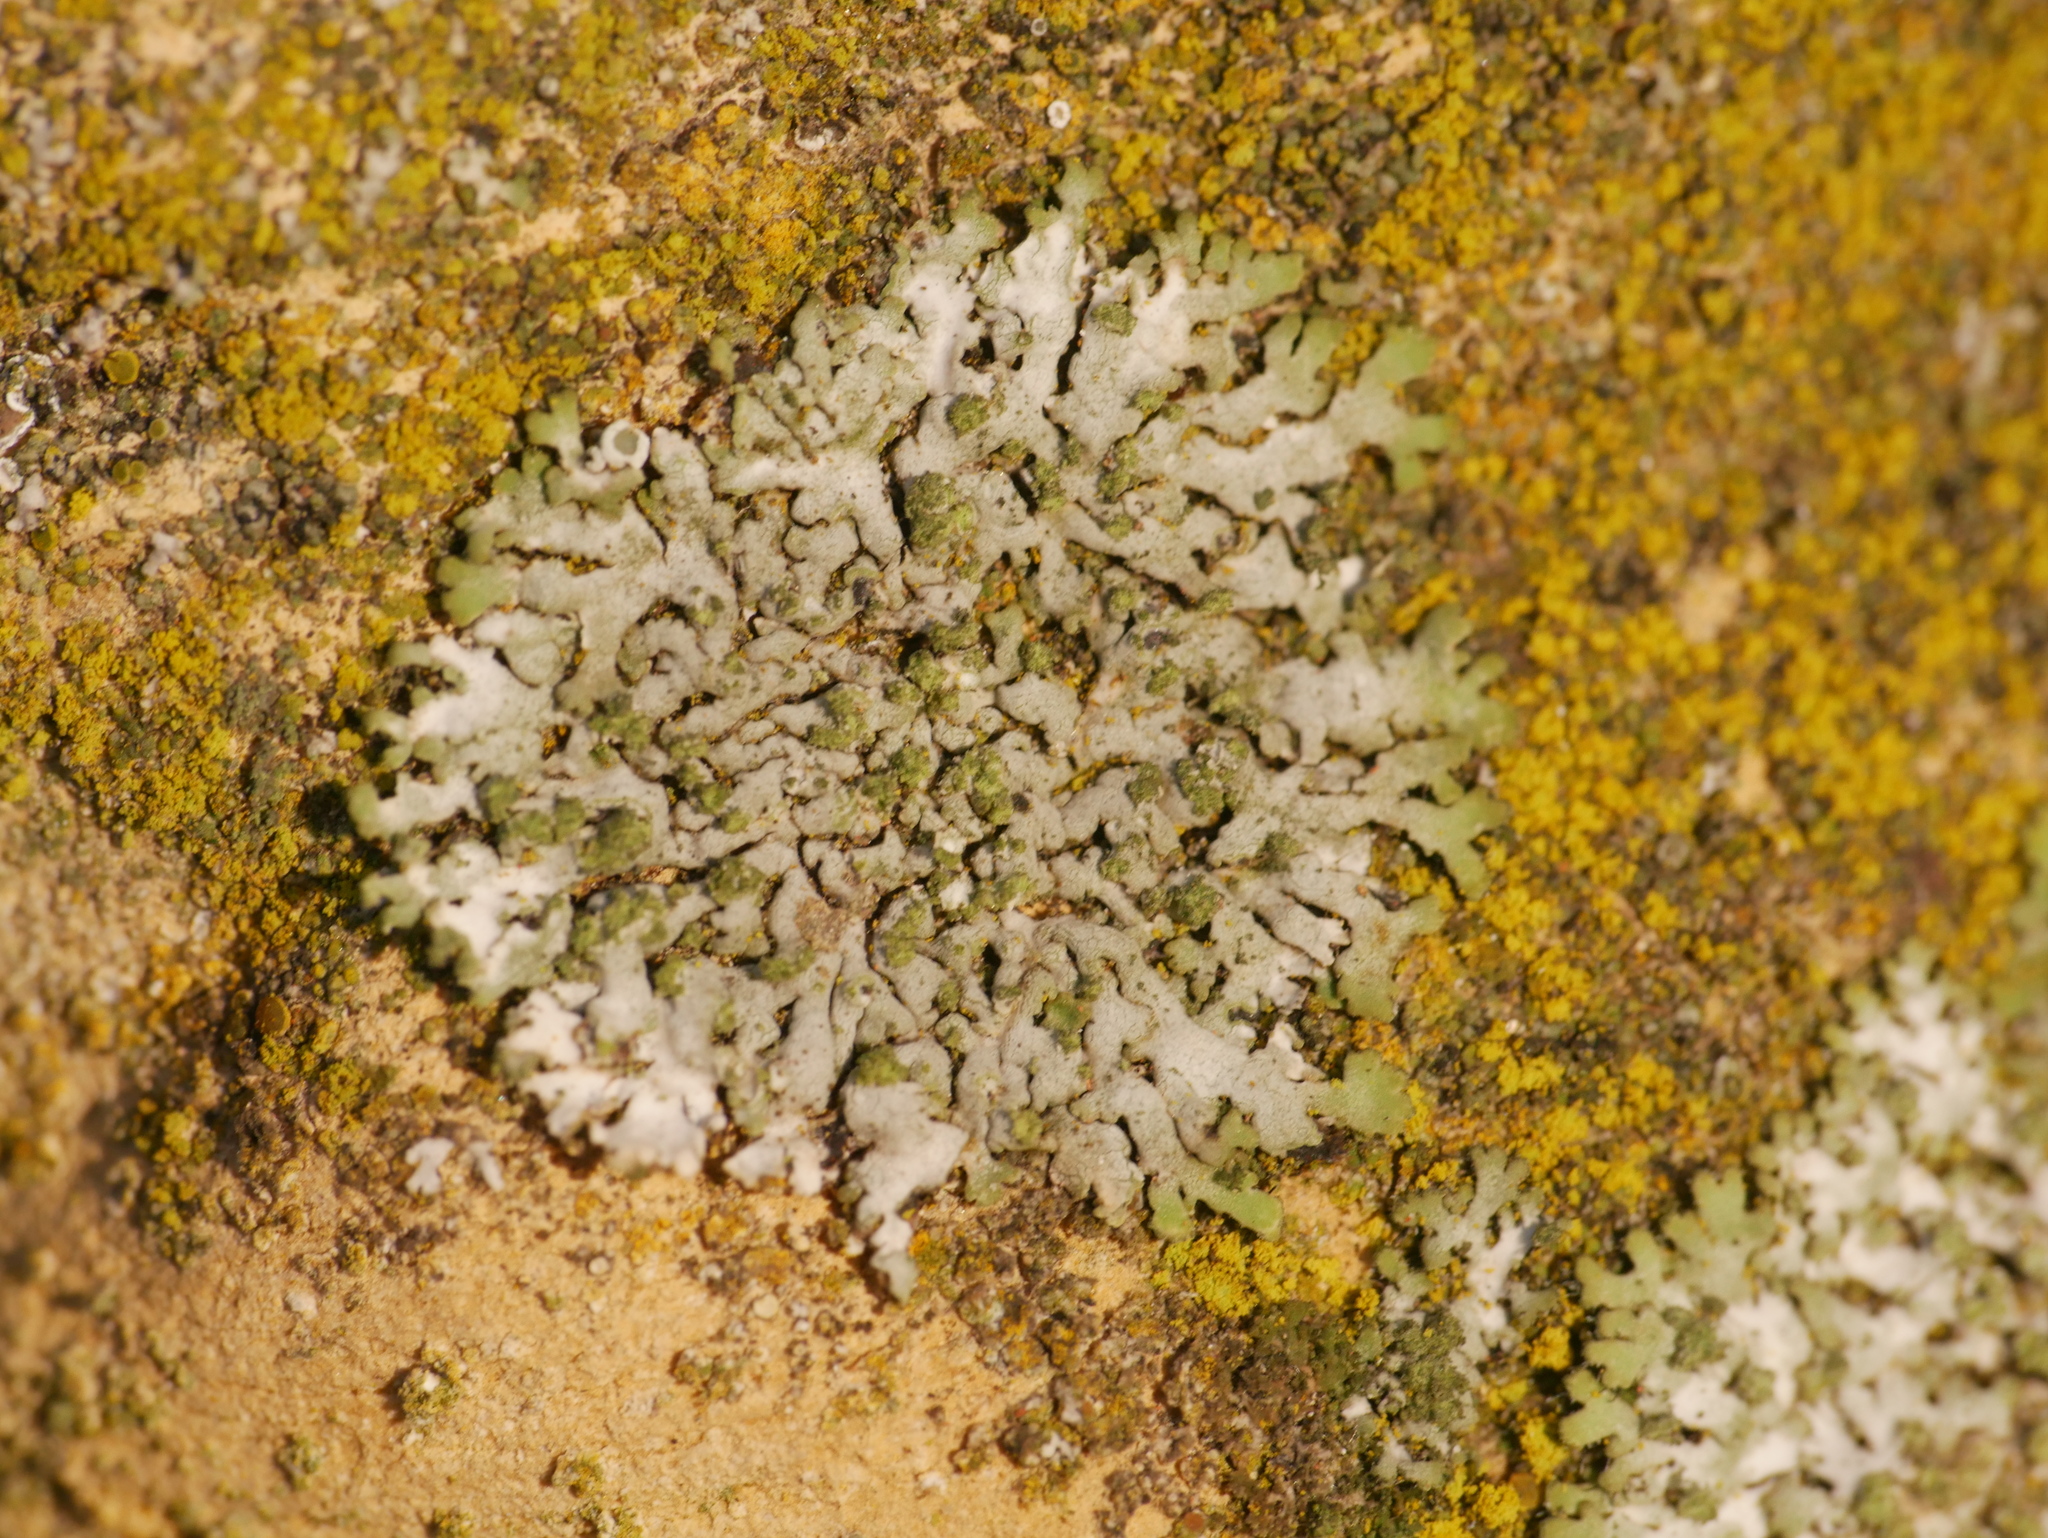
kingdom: Fungi
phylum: Ascomycota
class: Lecanoromycetes
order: Caliciales
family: Physciaceae
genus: Phaeophyscia
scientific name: Phaeophyscia orbicularis
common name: Mealy shadow lichen
